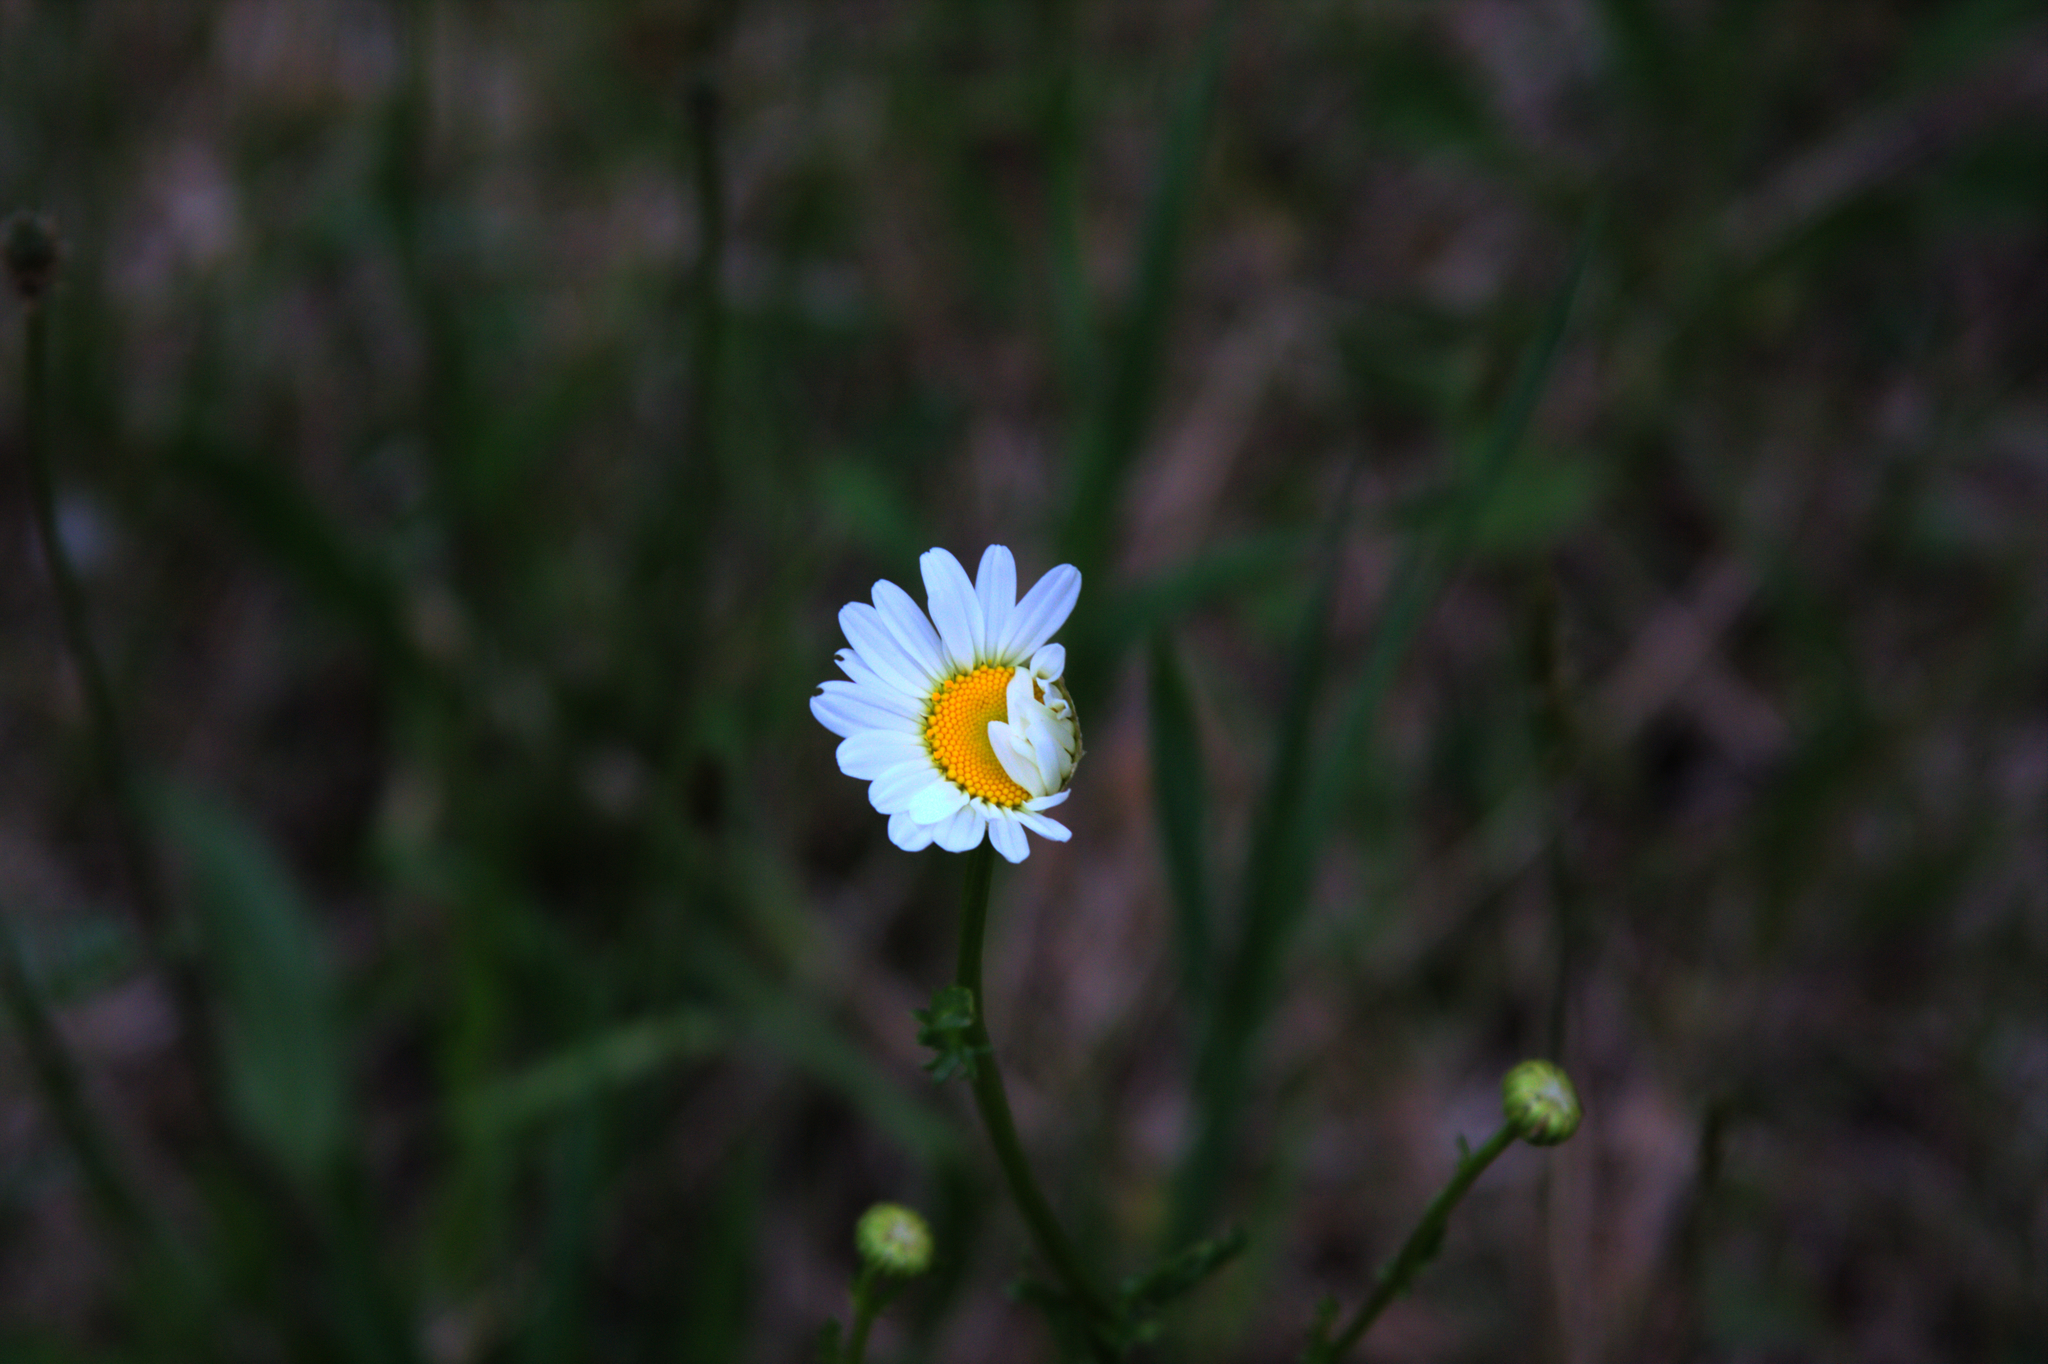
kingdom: Plantae
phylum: Tracheophyta
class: Magnoliopsida
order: Asterales
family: Asteraceae
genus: Leucanthemum
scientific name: Leucanthemum vulgare
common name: Oxeye daisy
